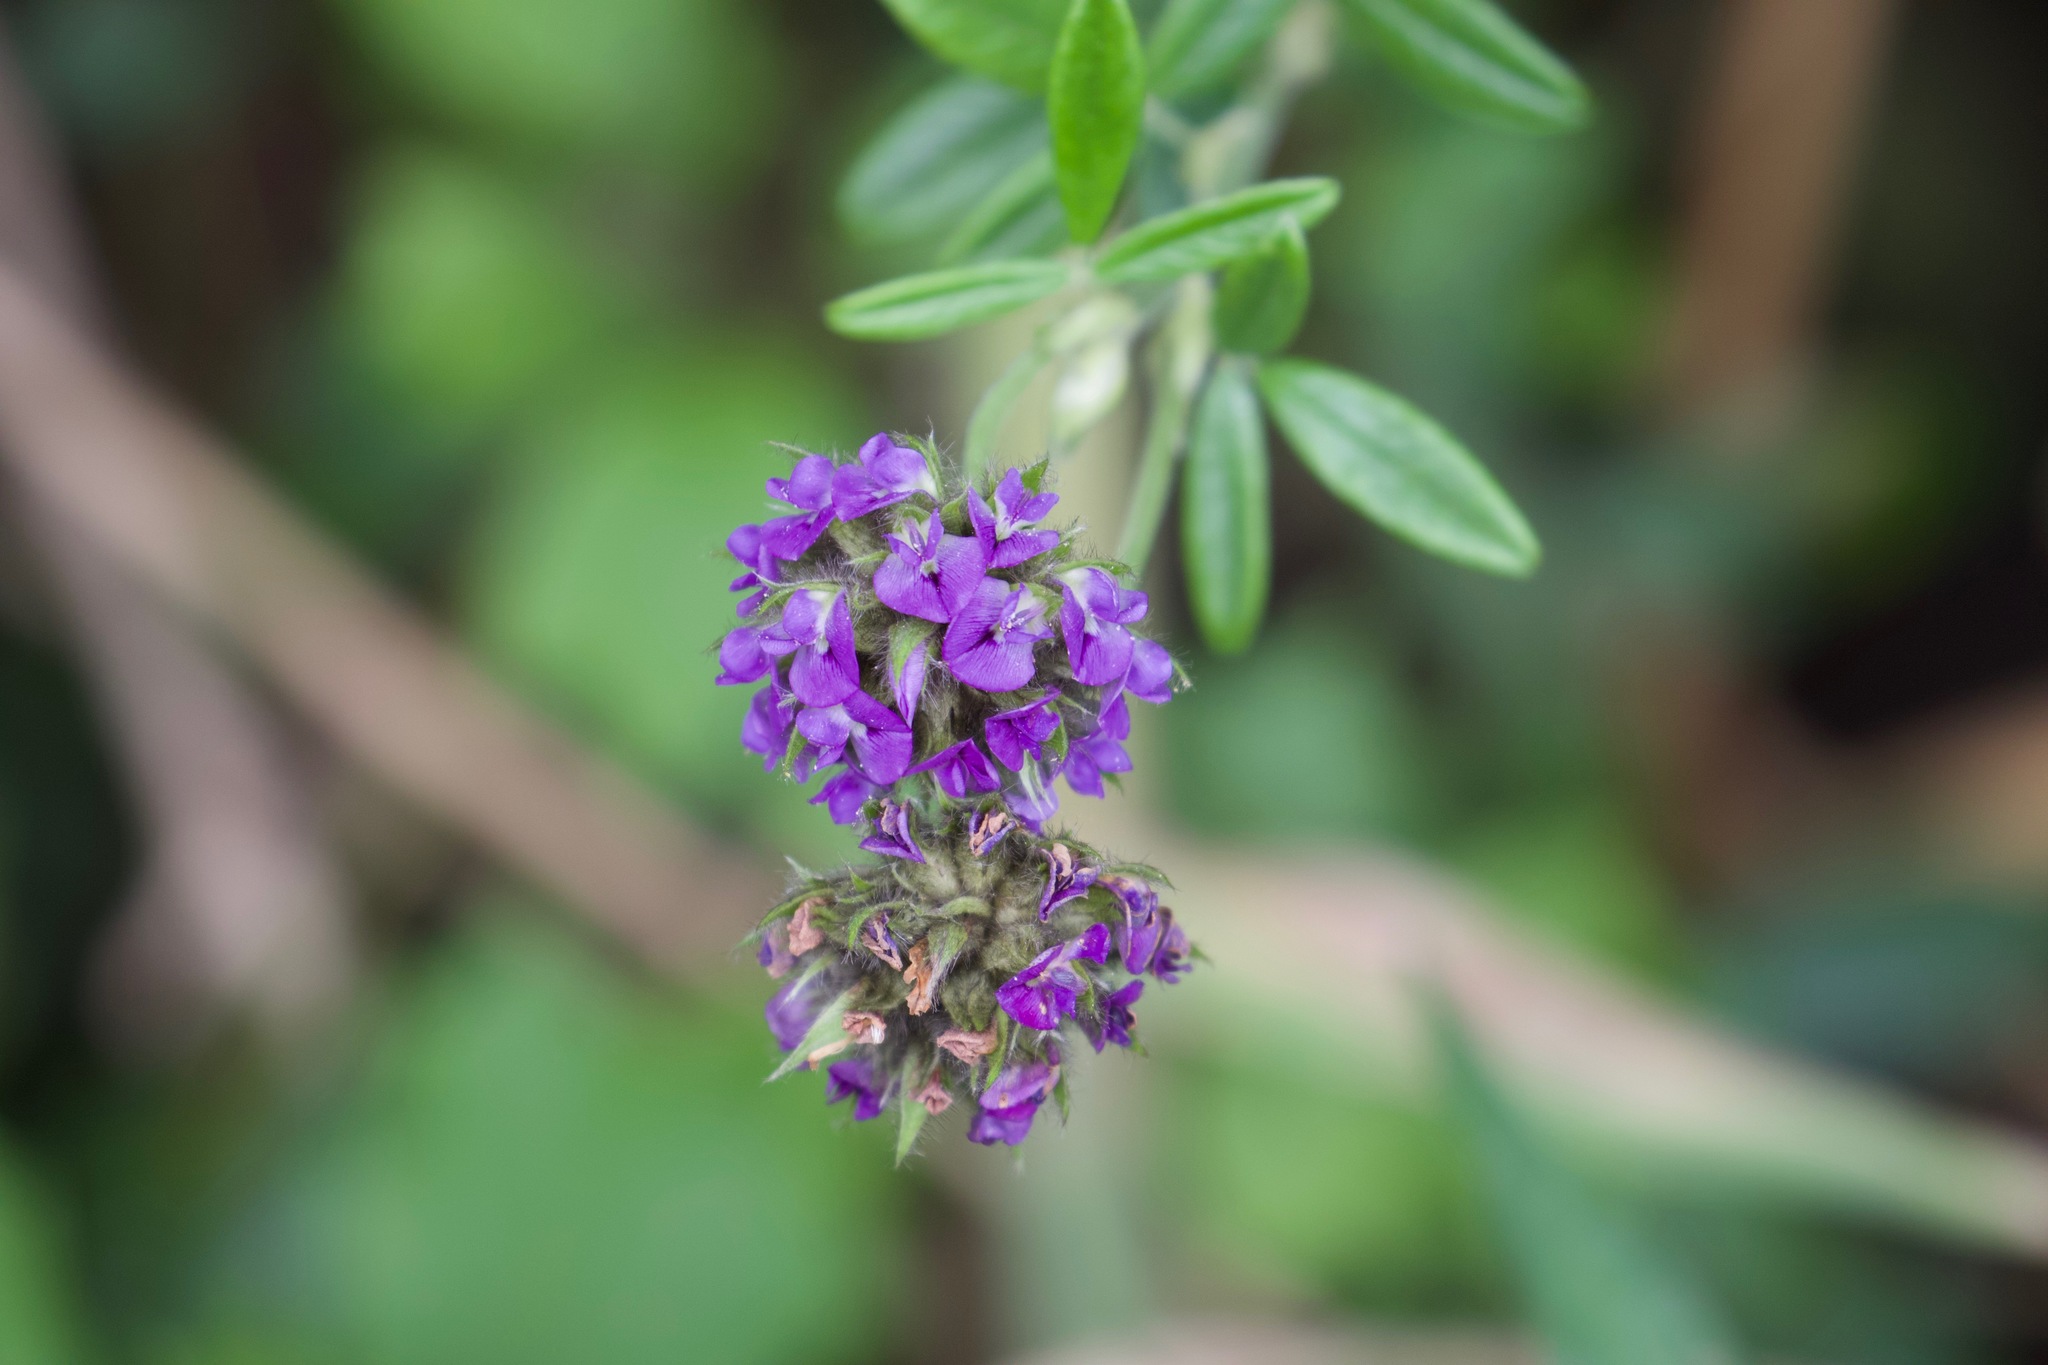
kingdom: Plantae
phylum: Tracheophyta
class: Magnoliopsida
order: Fabales
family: Fabaceae
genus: Psoralea
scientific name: Psoralea sericea
